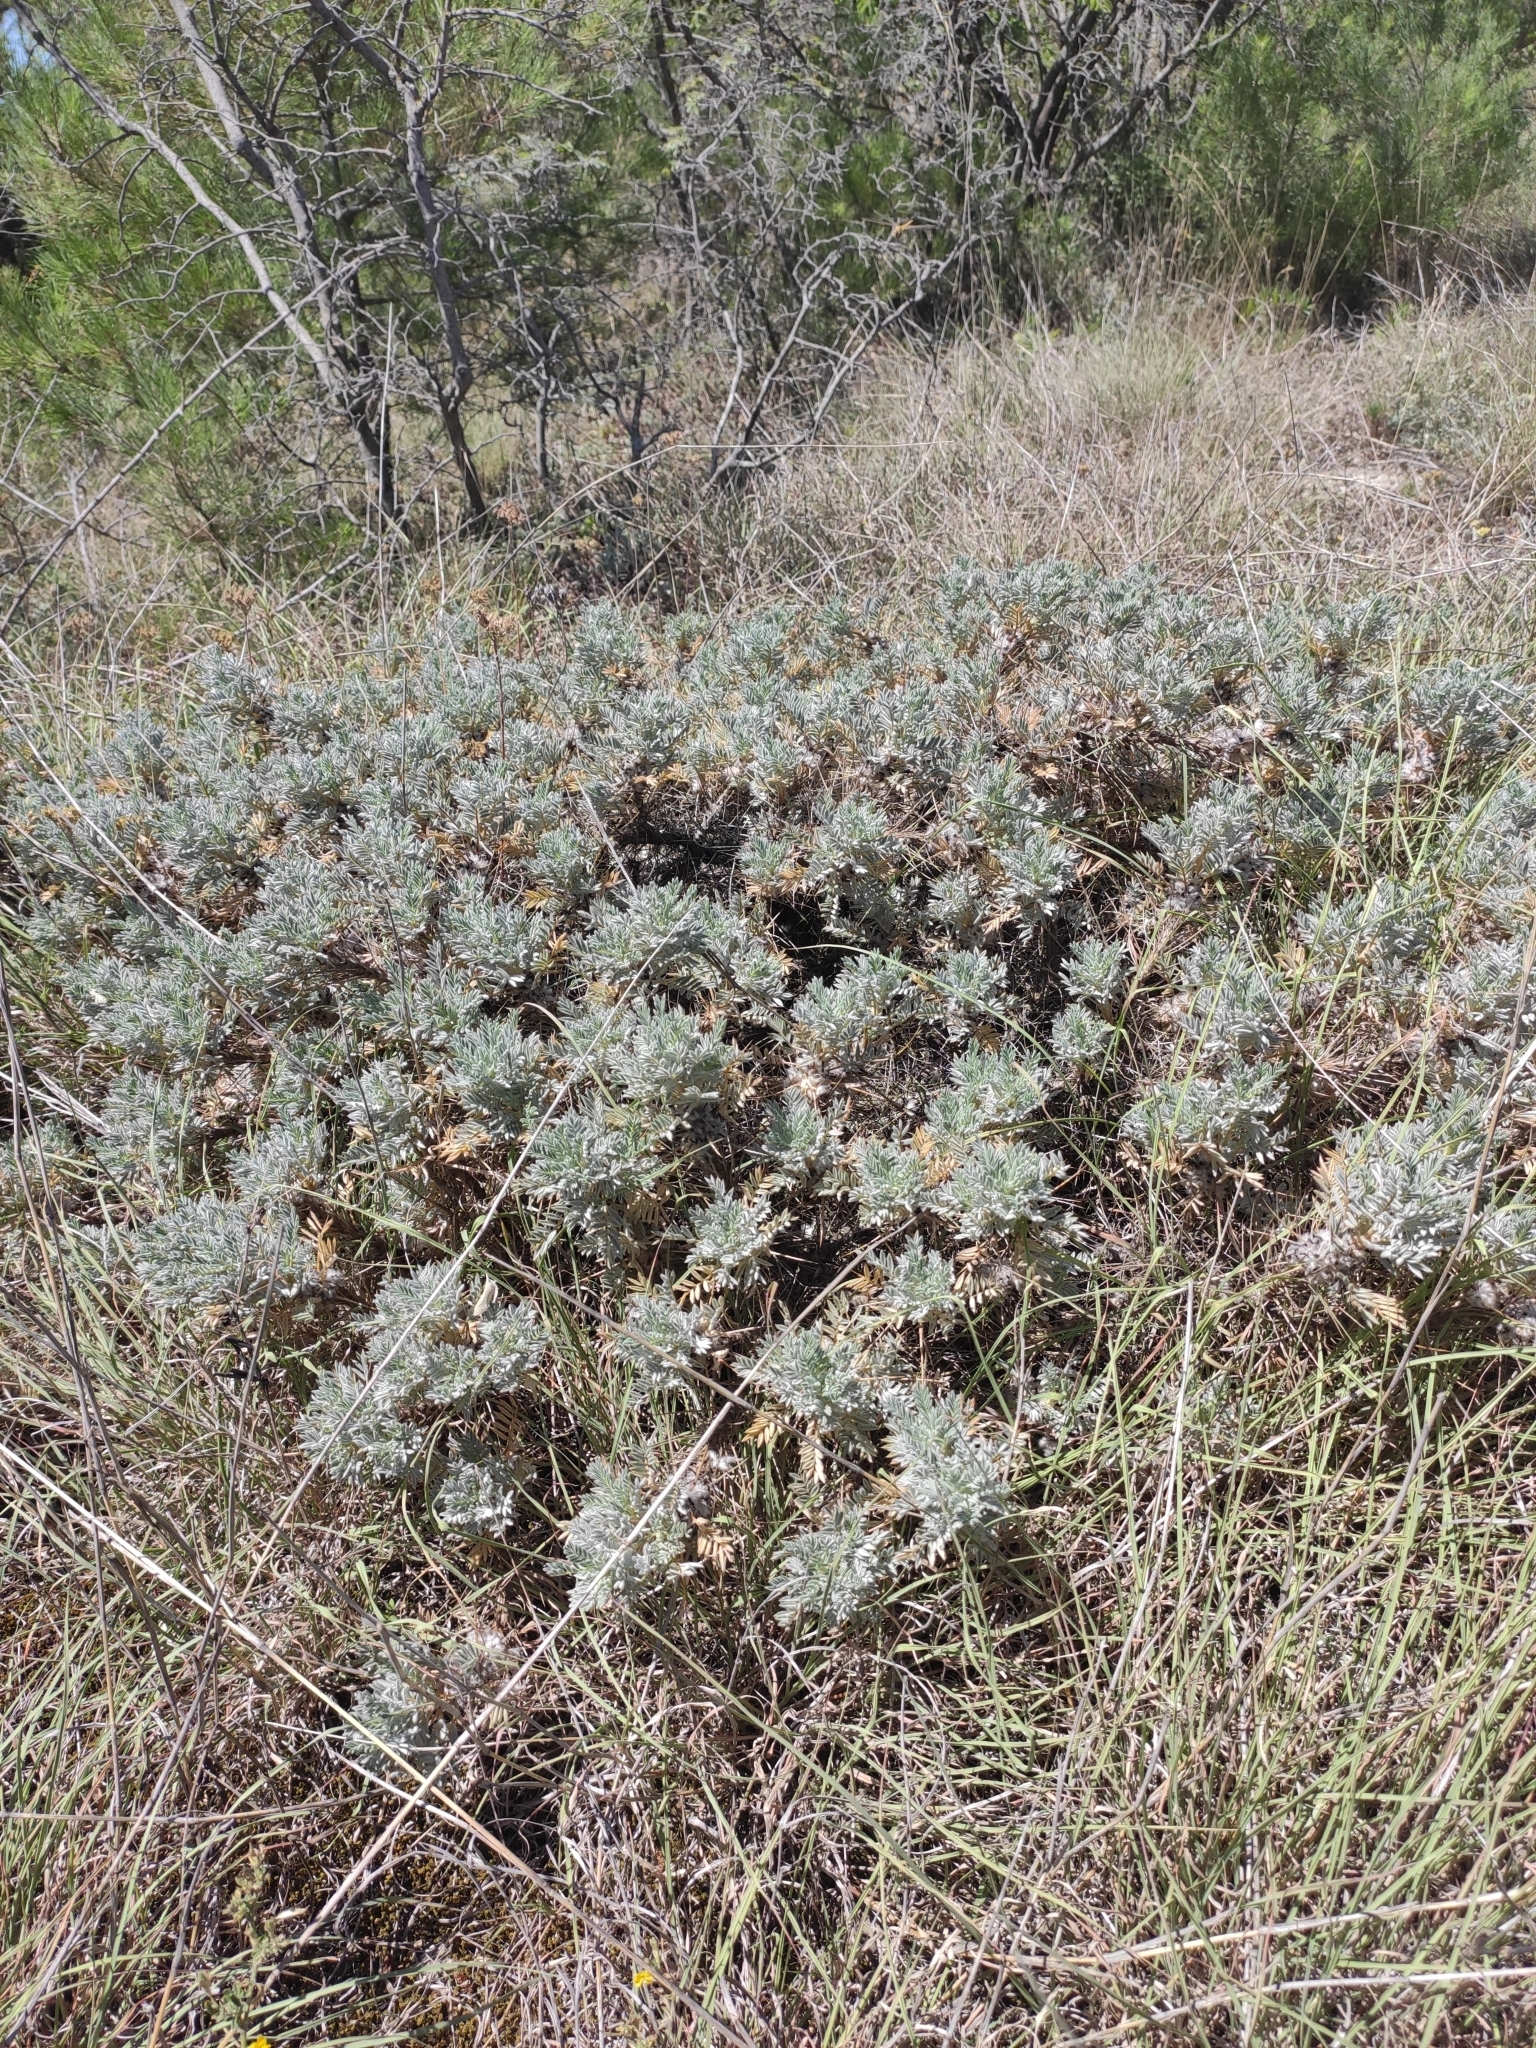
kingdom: Plantae
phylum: Tracheophyta
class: Magnoliopsida
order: Fabales
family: Fabaceae
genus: Astragalus
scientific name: Astragalus arnacanthoides
